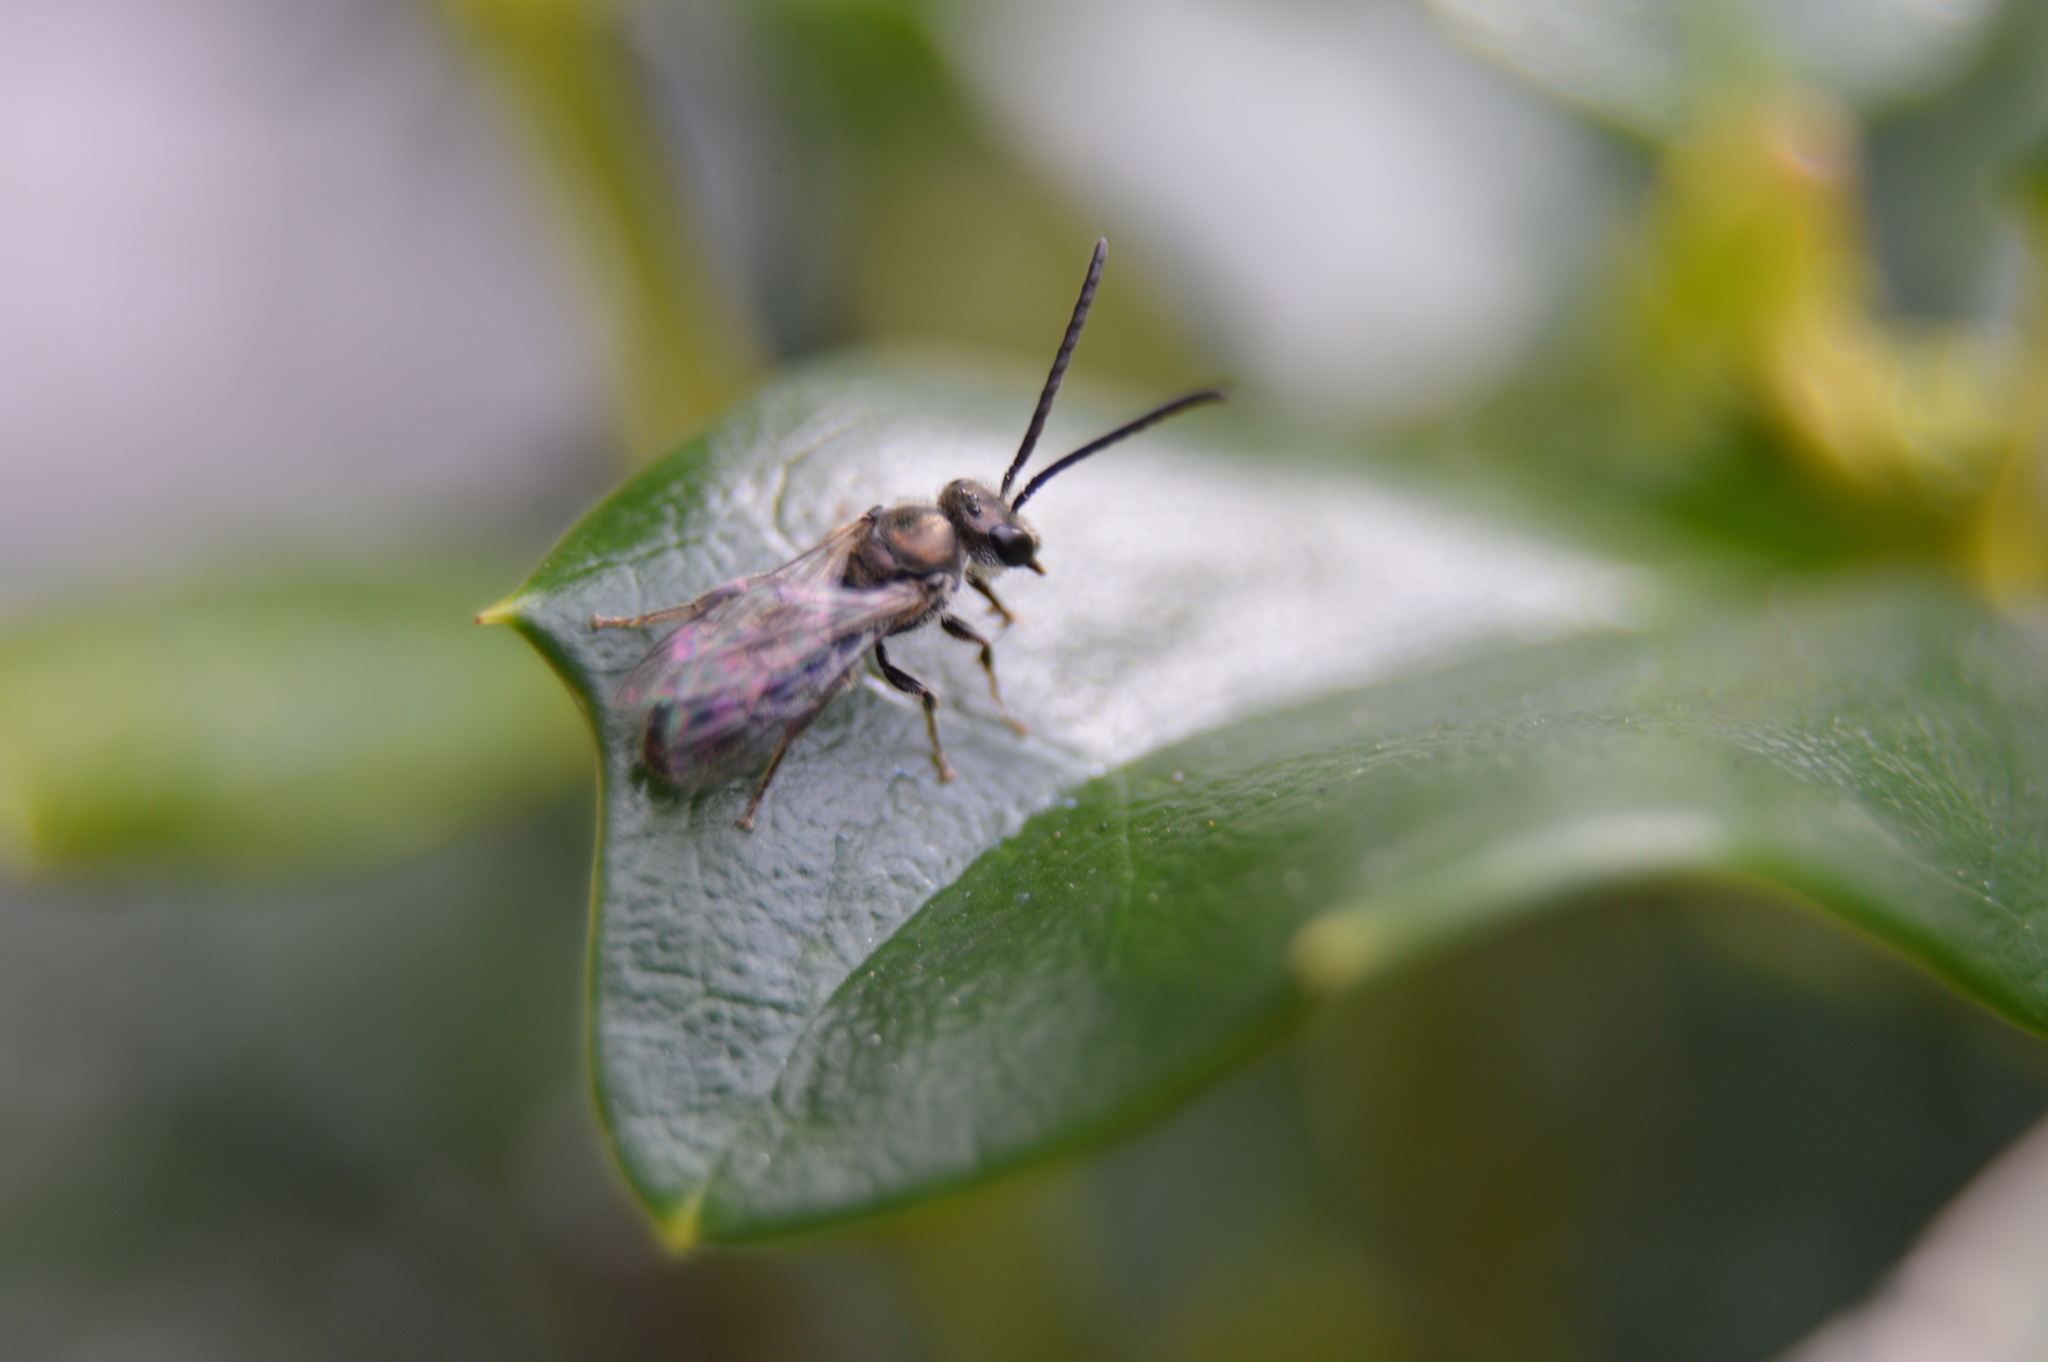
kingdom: Animalia
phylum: Arthropoda
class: Insecta
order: Hymenoptera
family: Halictidae
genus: Dialictus
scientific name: Dialictus
